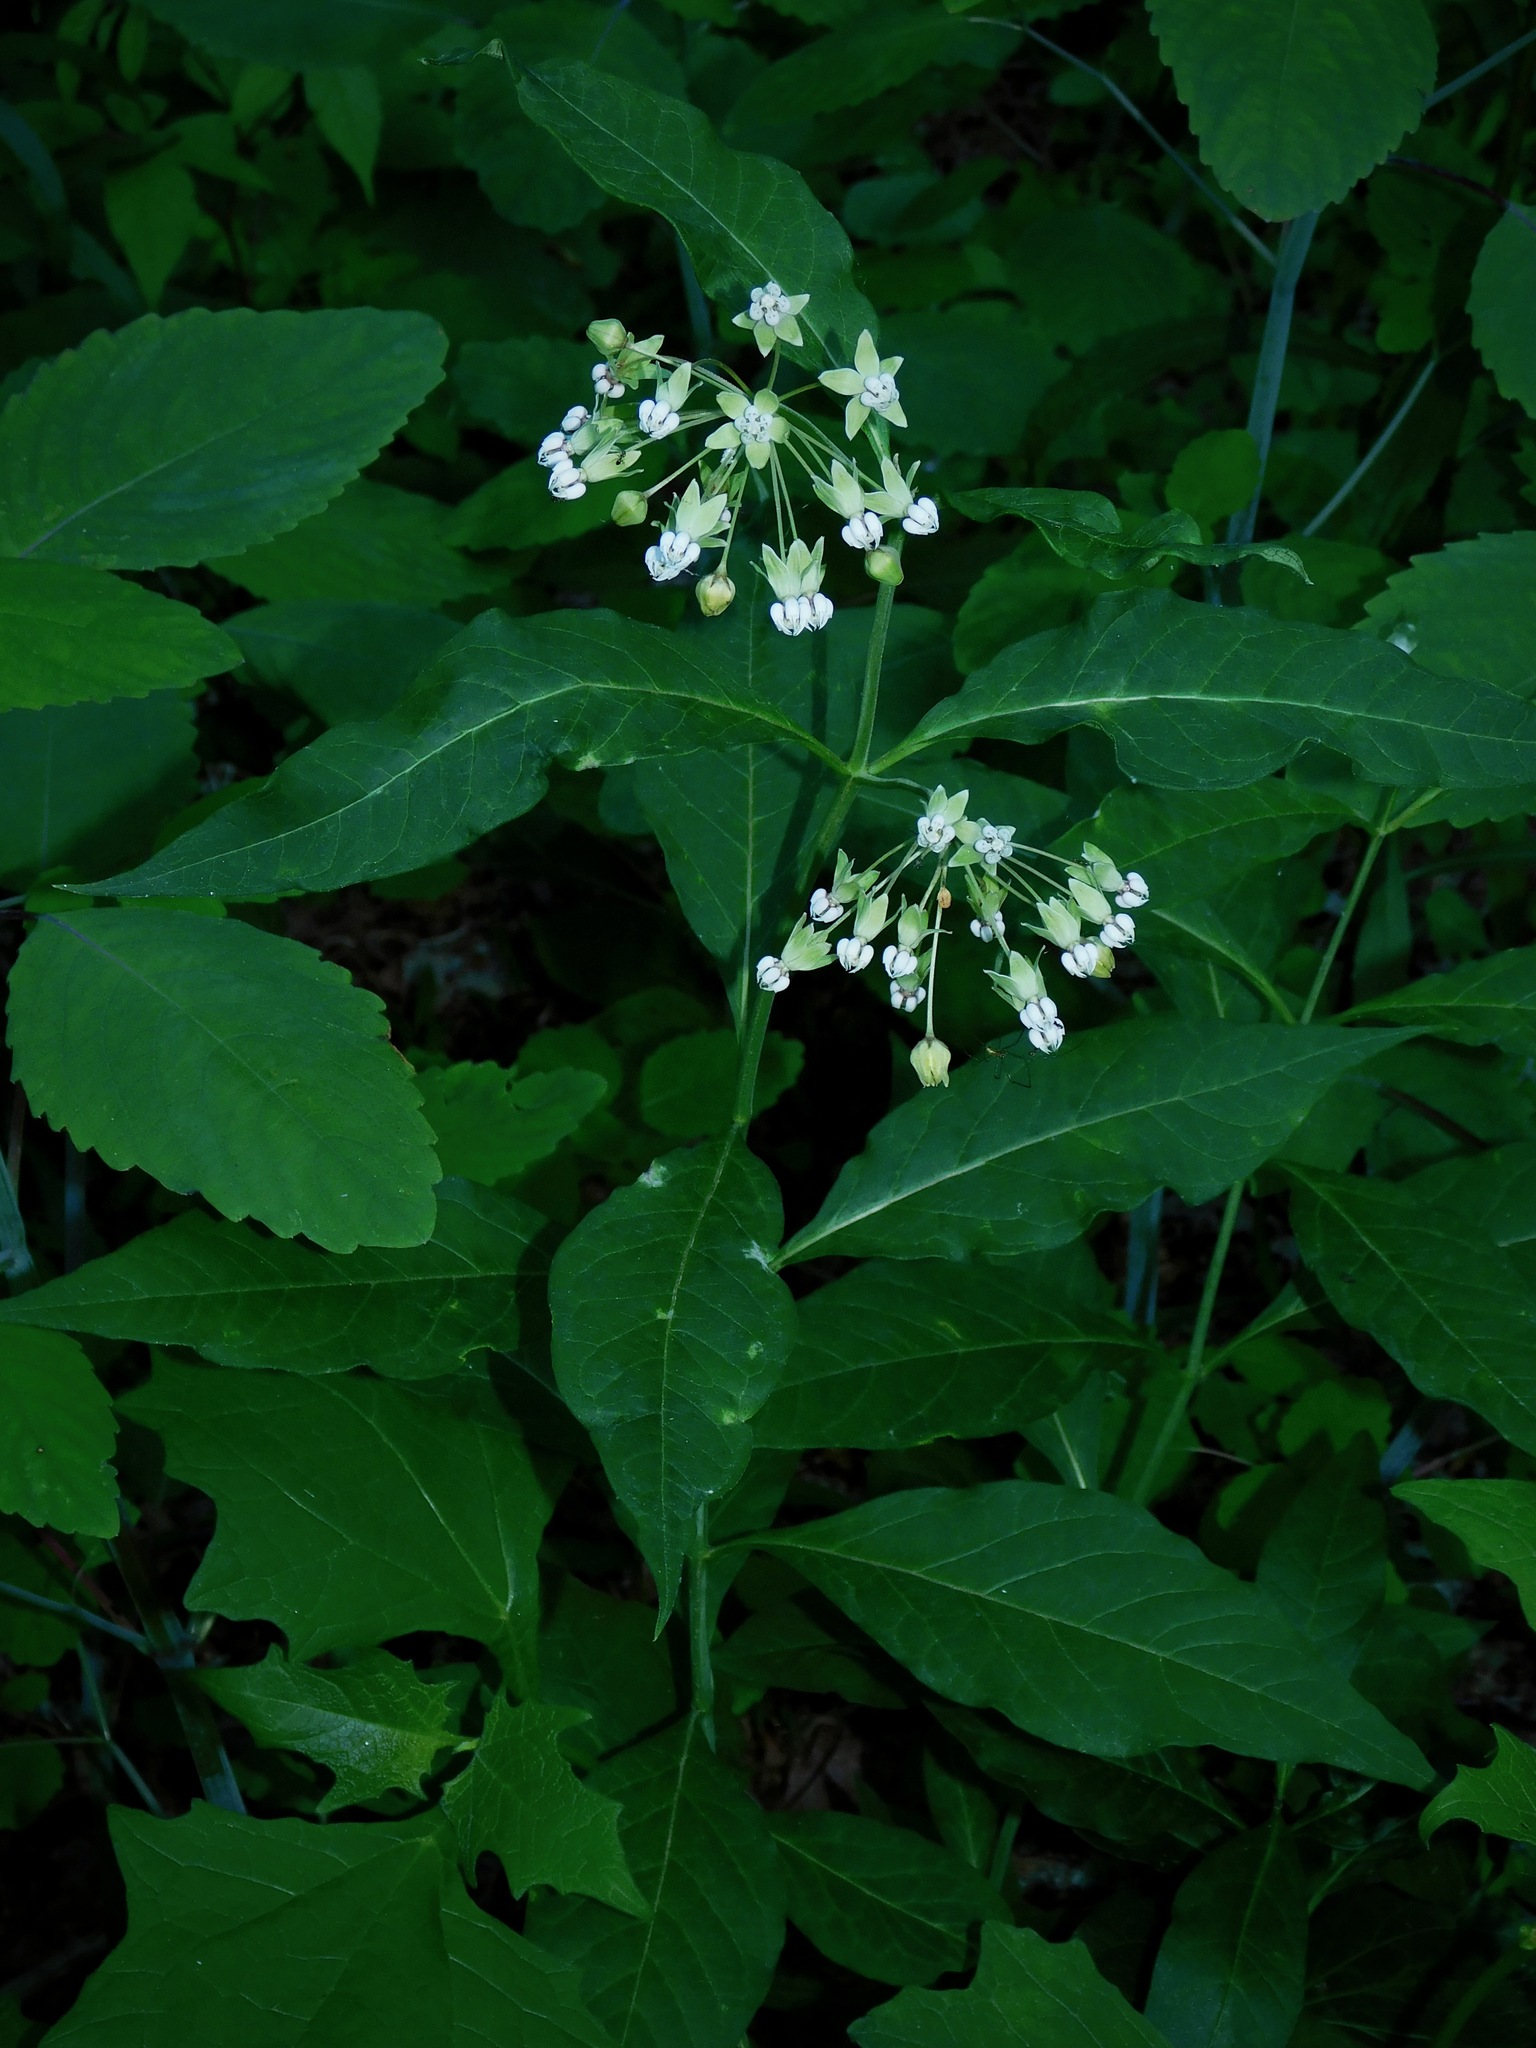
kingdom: Plantae
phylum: Tracheophyta
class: Magnoliopsida
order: Gentianales
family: Apocynaceae
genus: Asclepias
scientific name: Asclepias exaltata
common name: Poke milkweed
